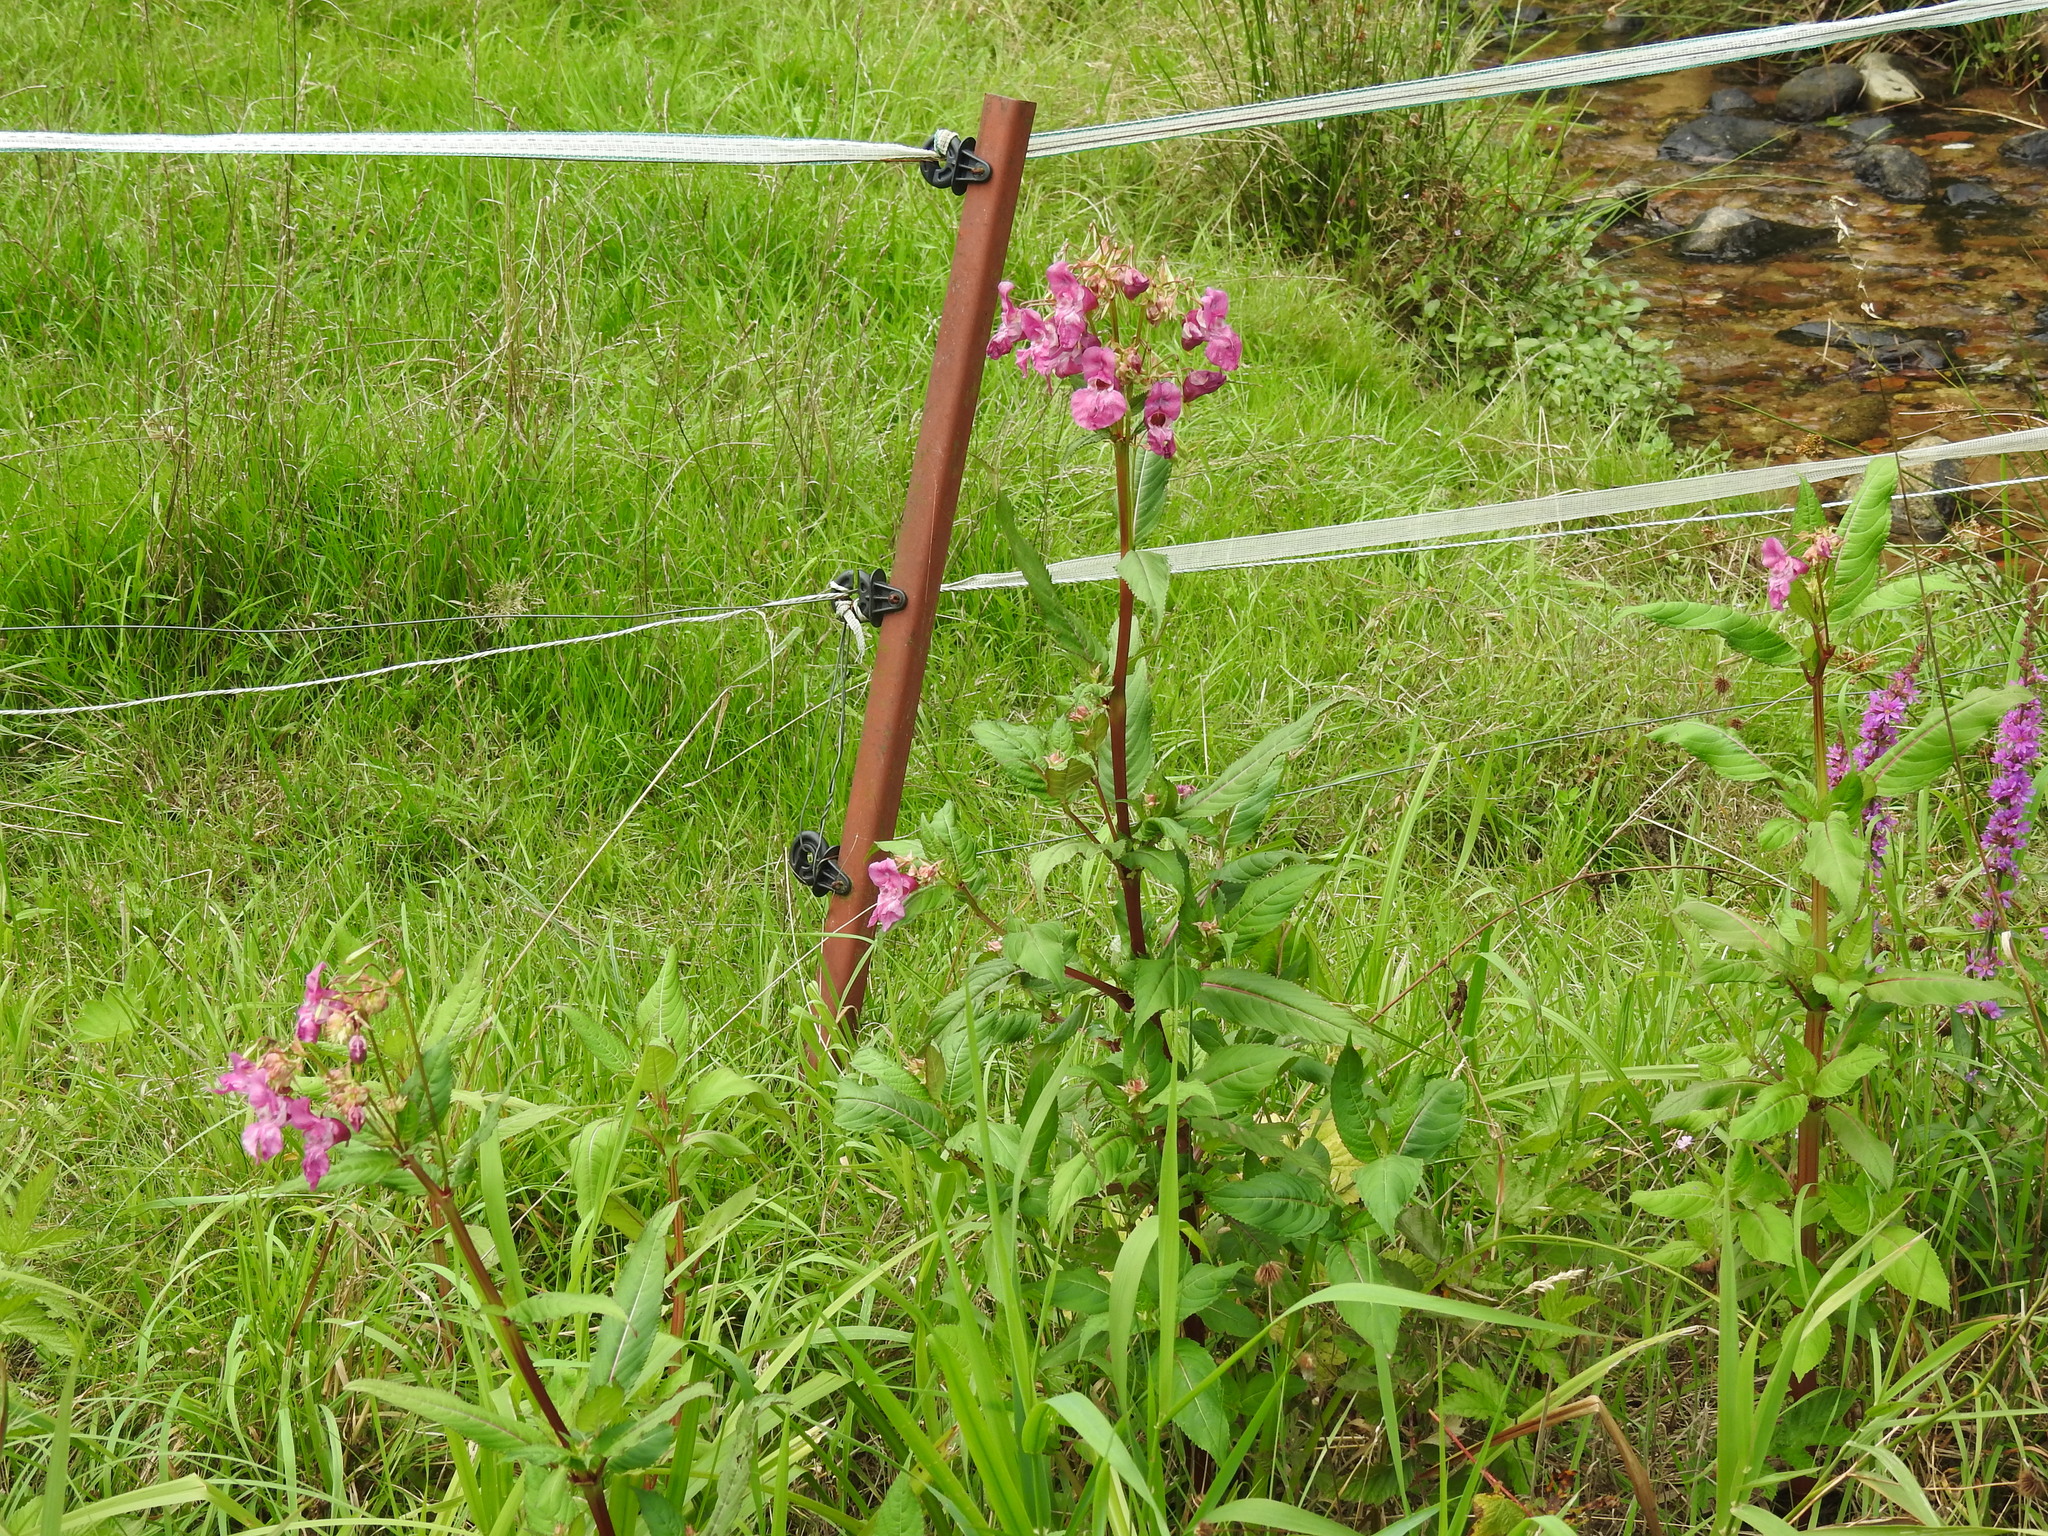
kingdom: Plantae
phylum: Tracheophyta
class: Magnoliopsida
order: Ericales
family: Balsaminaceae
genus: Impatiens
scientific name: Impatiens glandulifera
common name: Himalayan balsam
